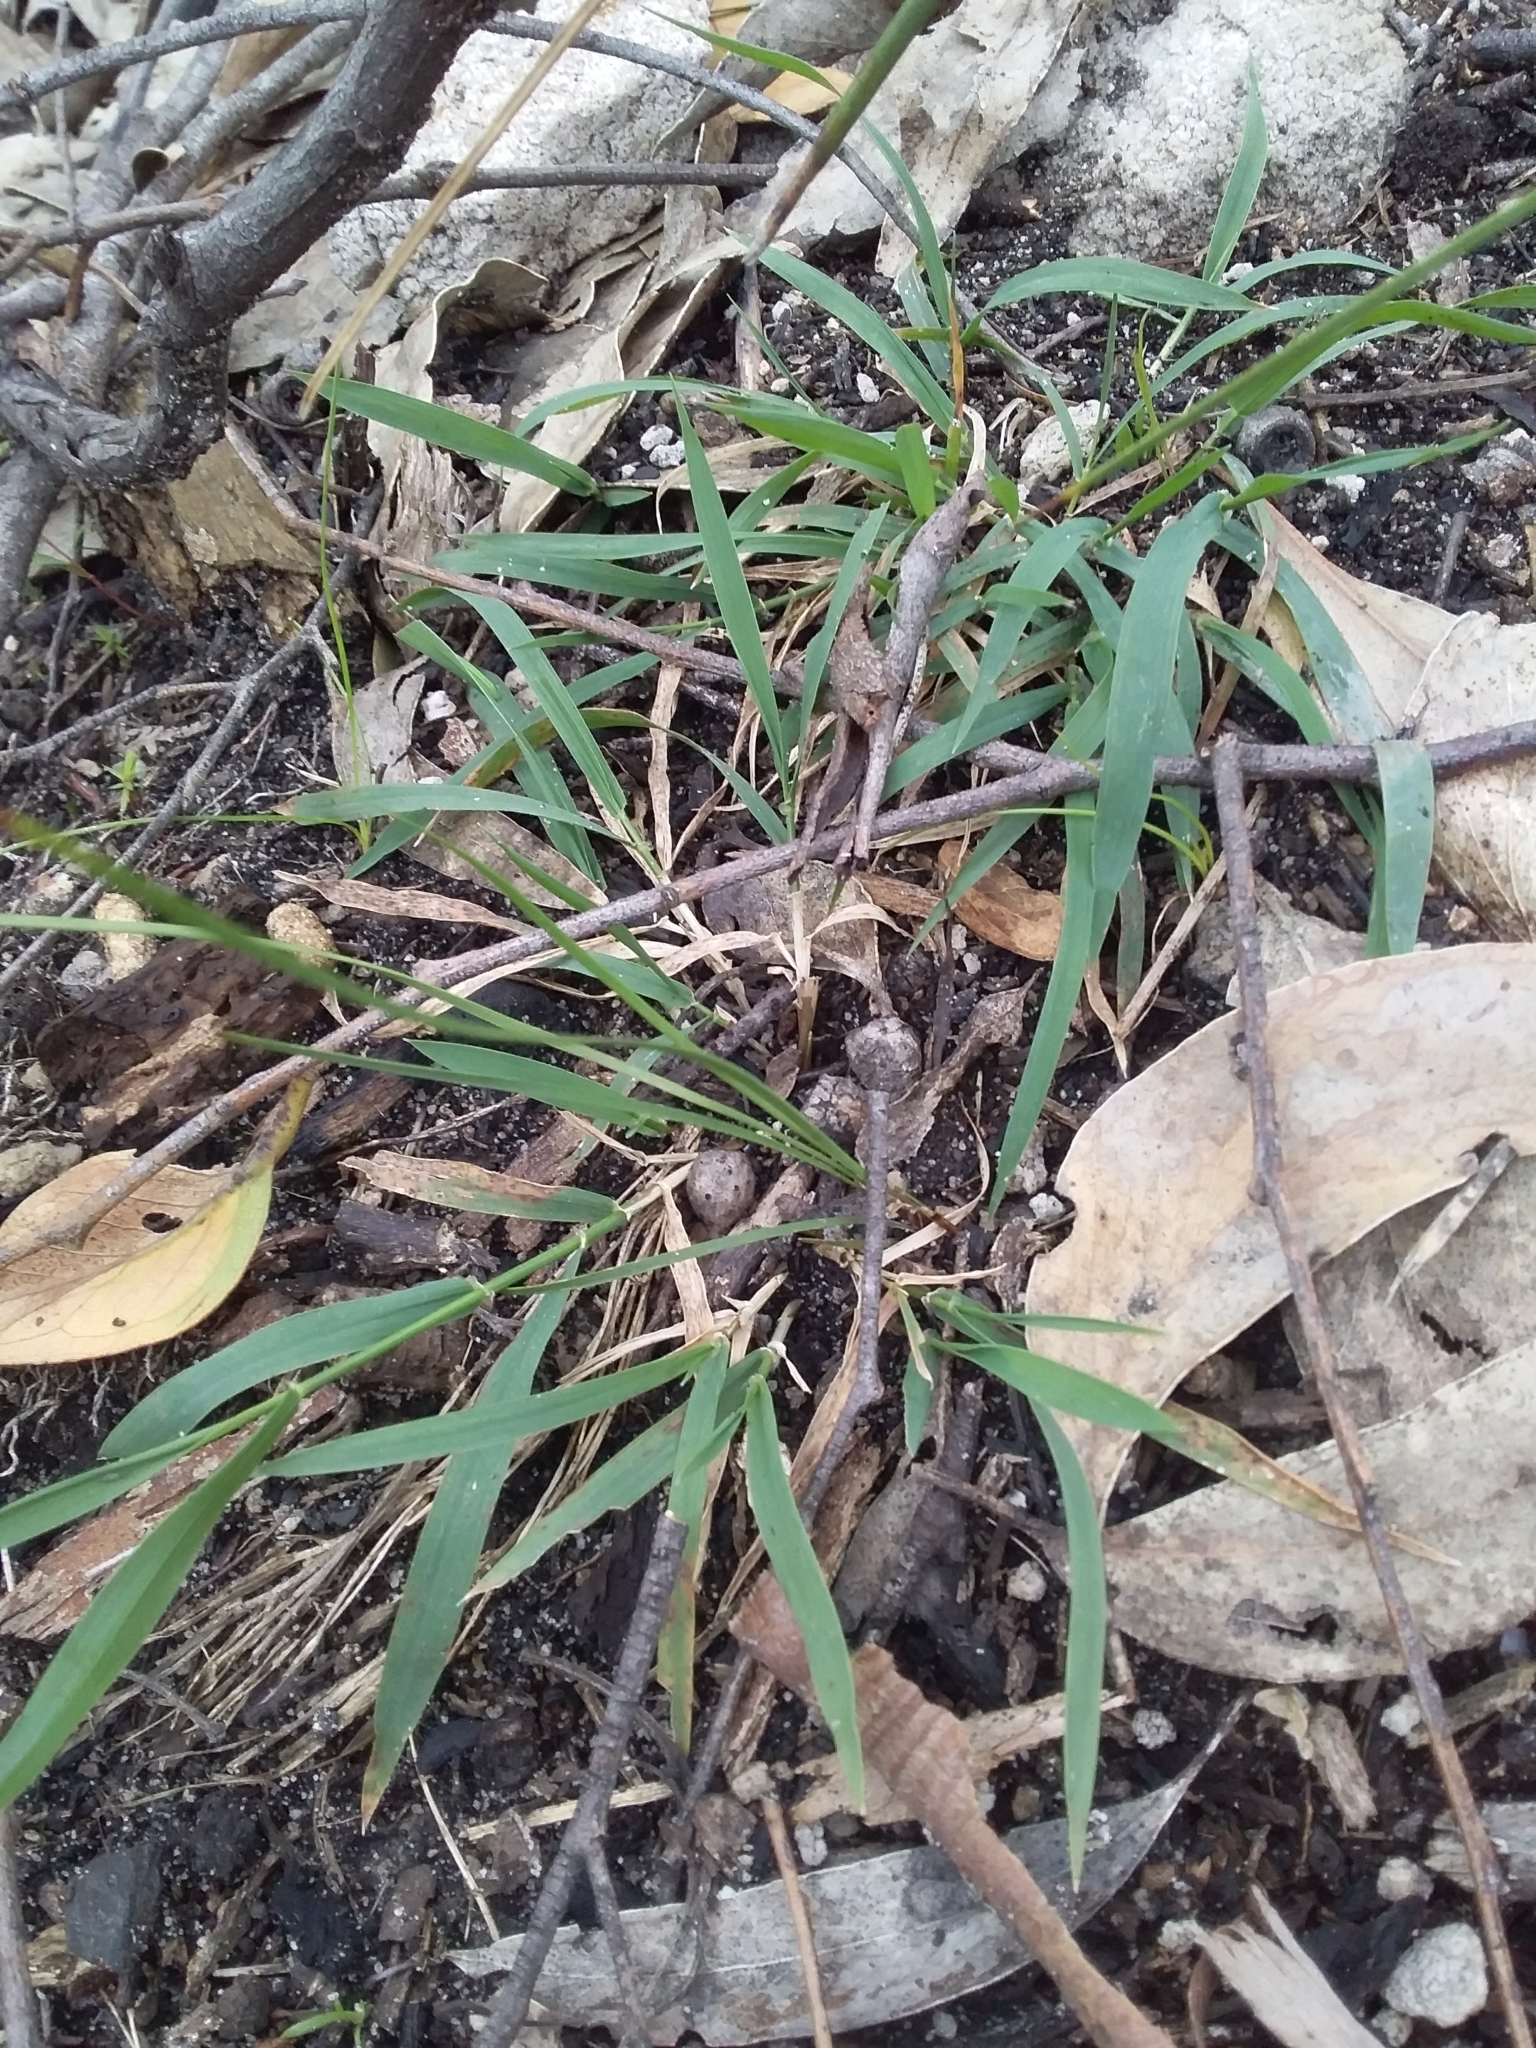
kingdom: Plantae
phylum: Tracheophyta
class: Liliopsida
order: Poales
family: Poaceae
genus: Microlaena
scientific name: Microlaena stipoides
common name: Meadow ricegrass
